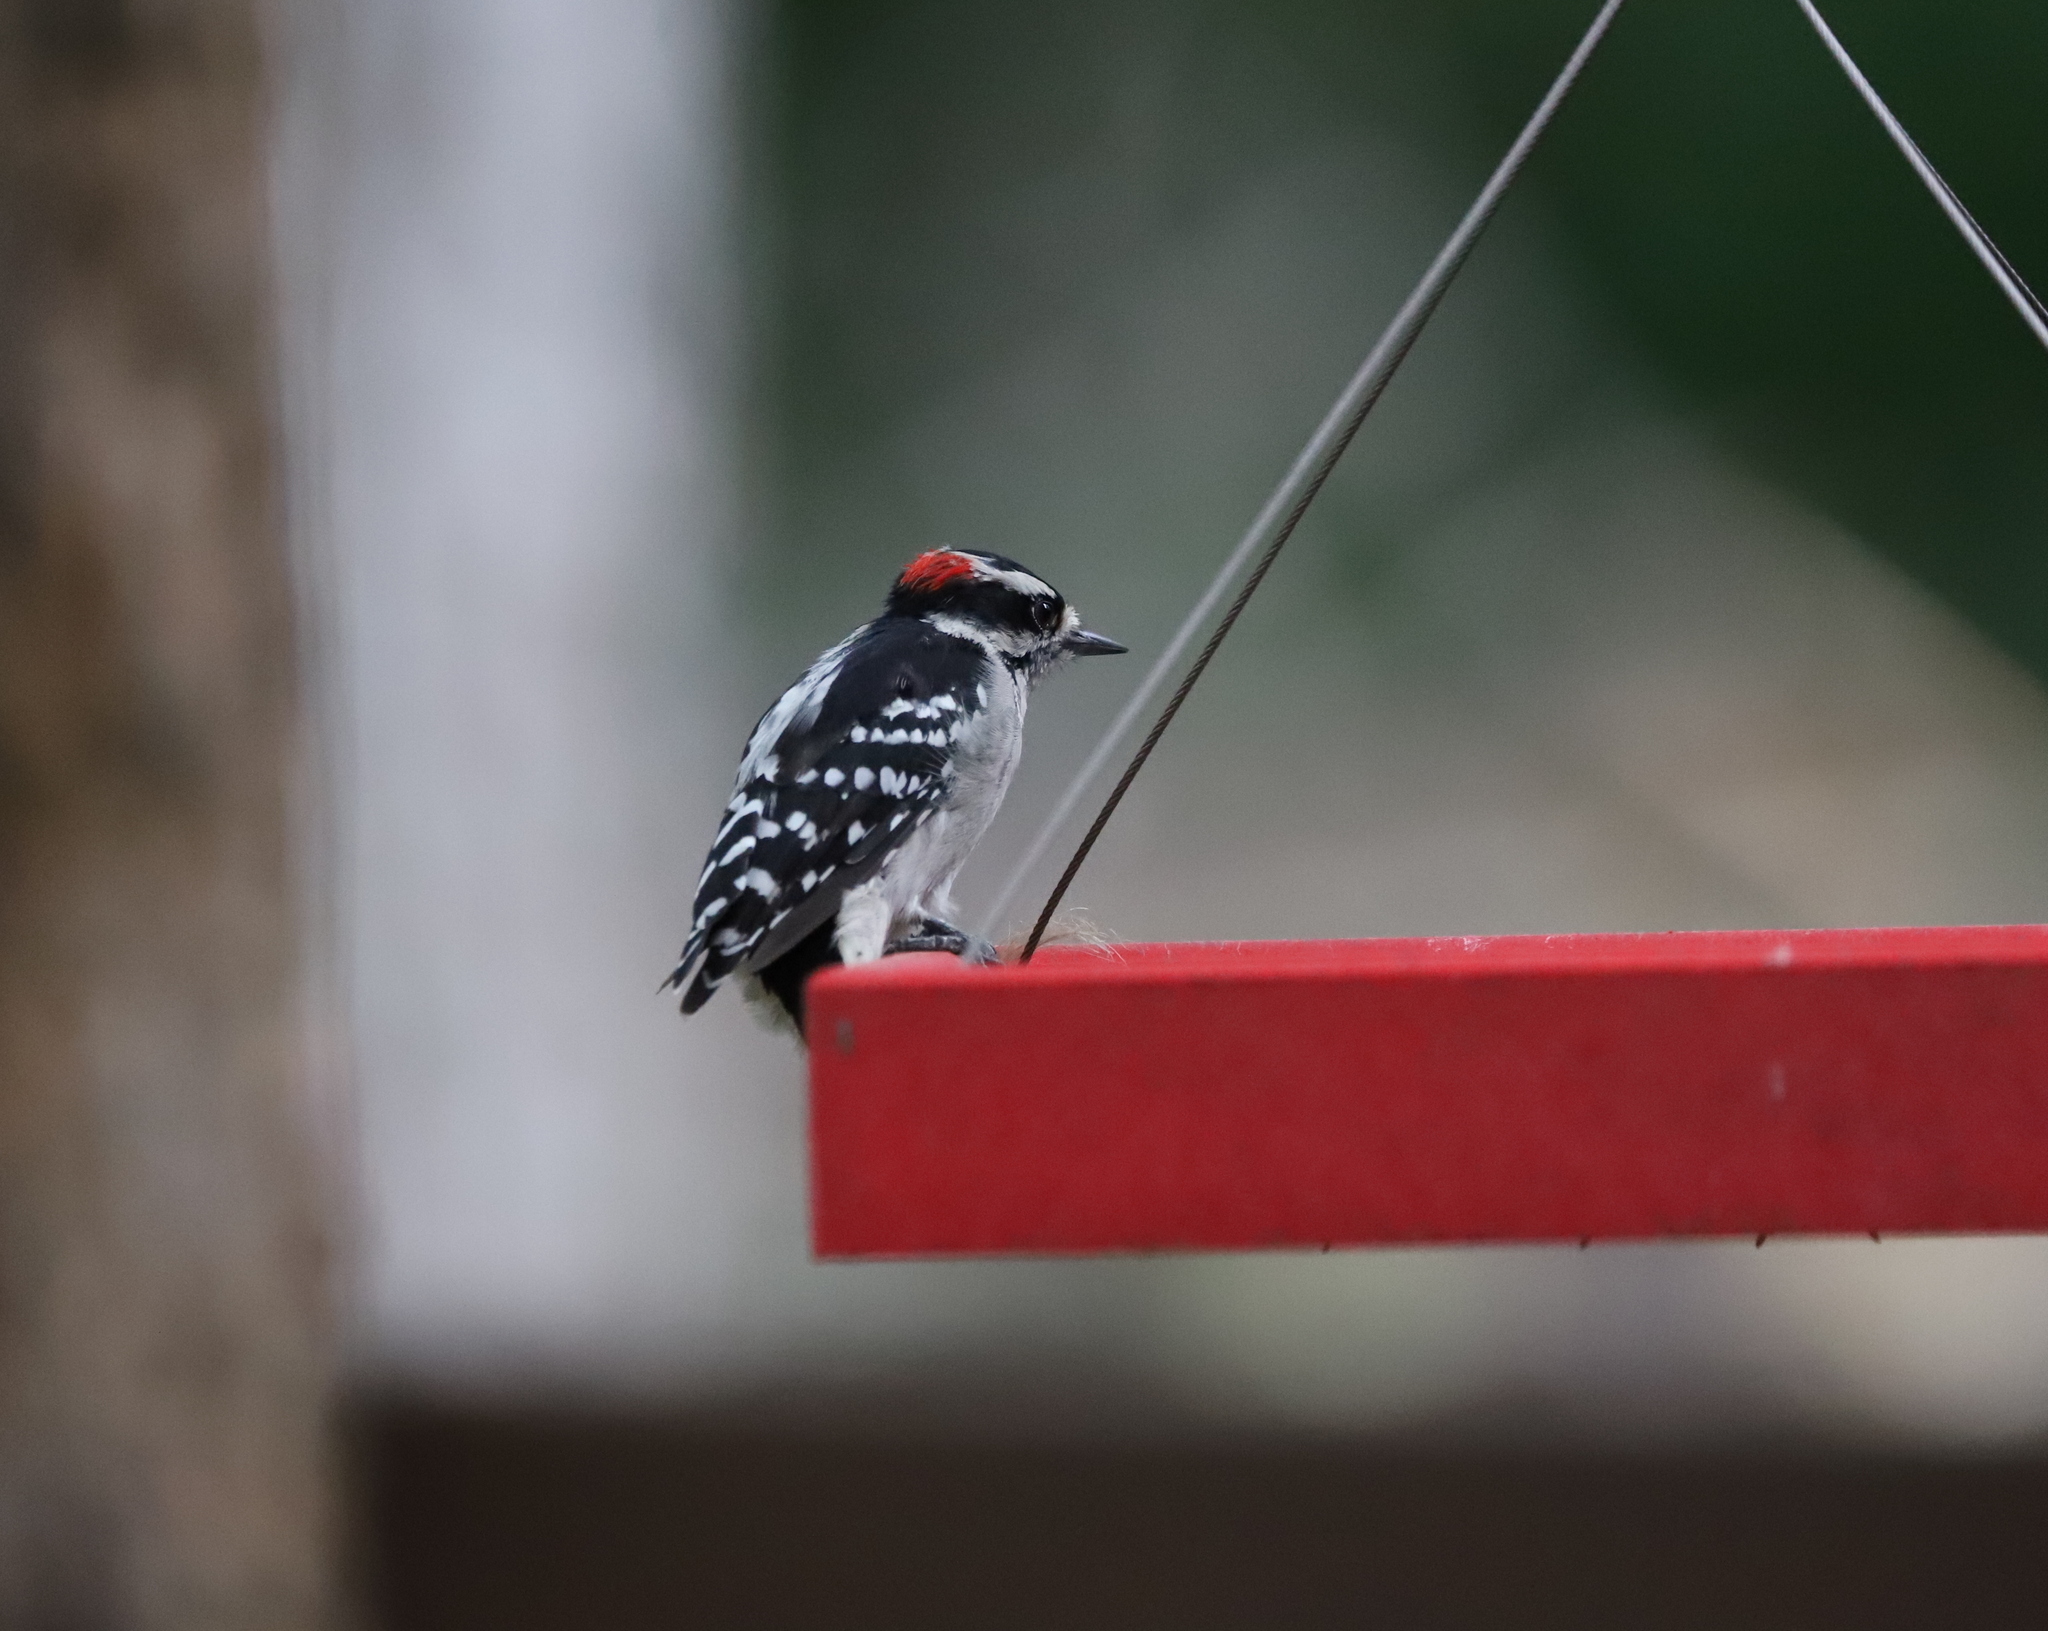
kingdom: Animalia
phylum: Chordata
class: Aves
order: Piciformes
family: Picidae
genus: Dryobates
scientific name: Dryobates pubescens
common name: Downy woodpecker
